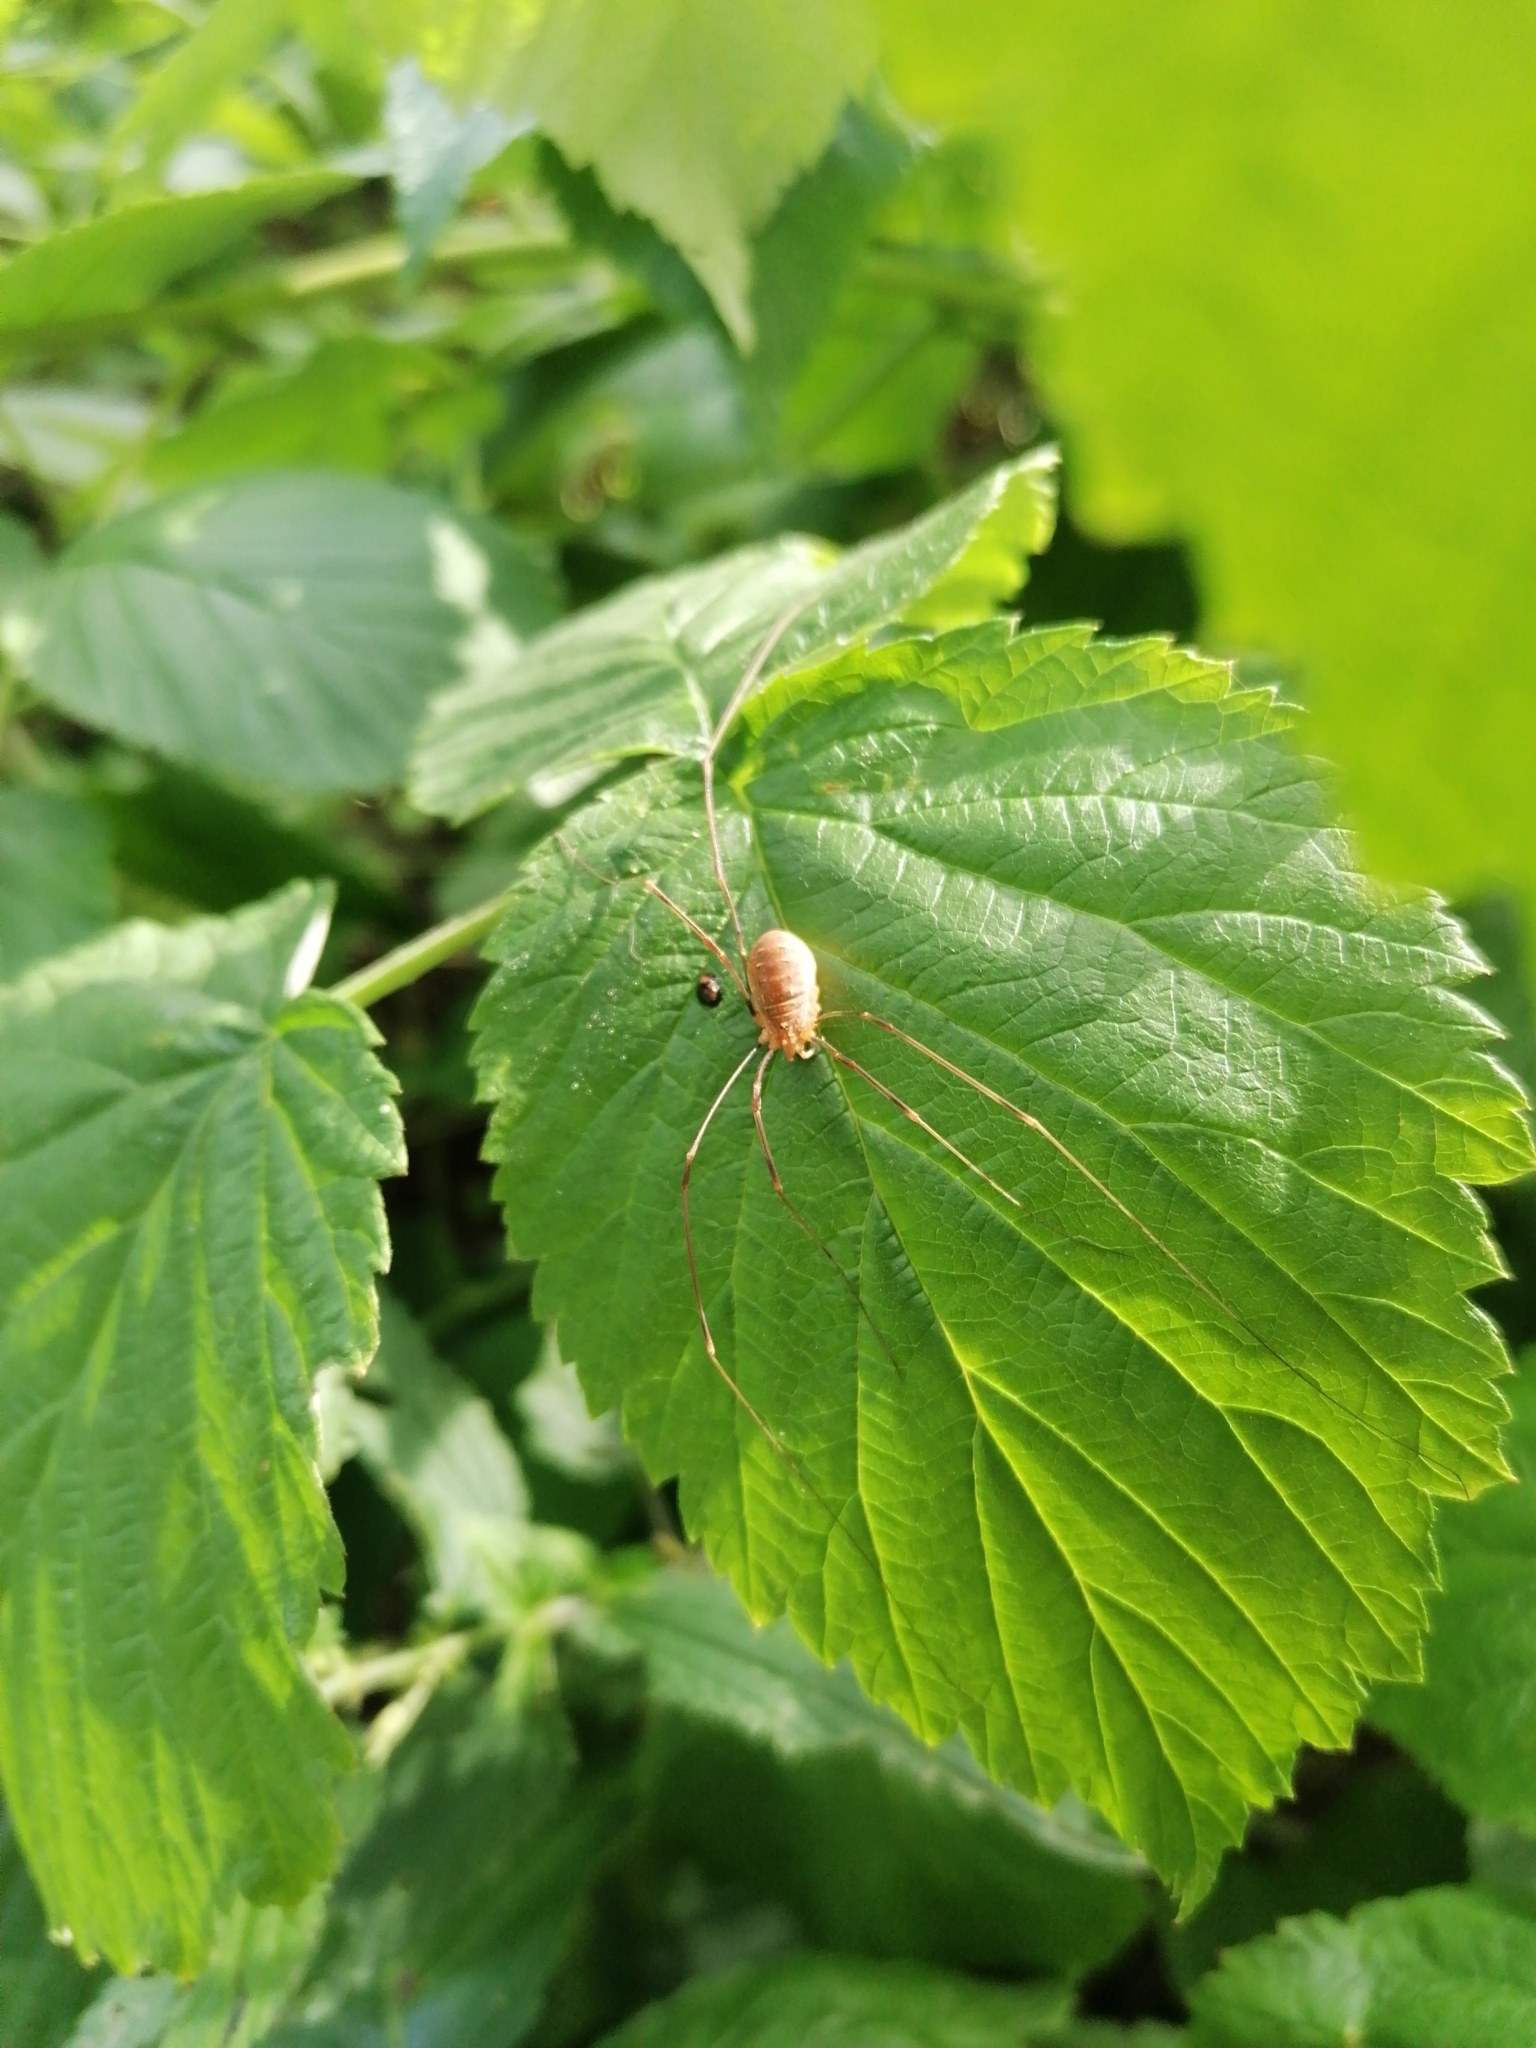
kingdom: Animalia
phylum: Arthropoda
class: Arachnida
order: Opiliones
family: Phalangiidae
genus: Opilio
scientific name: Opilio canestrinii
